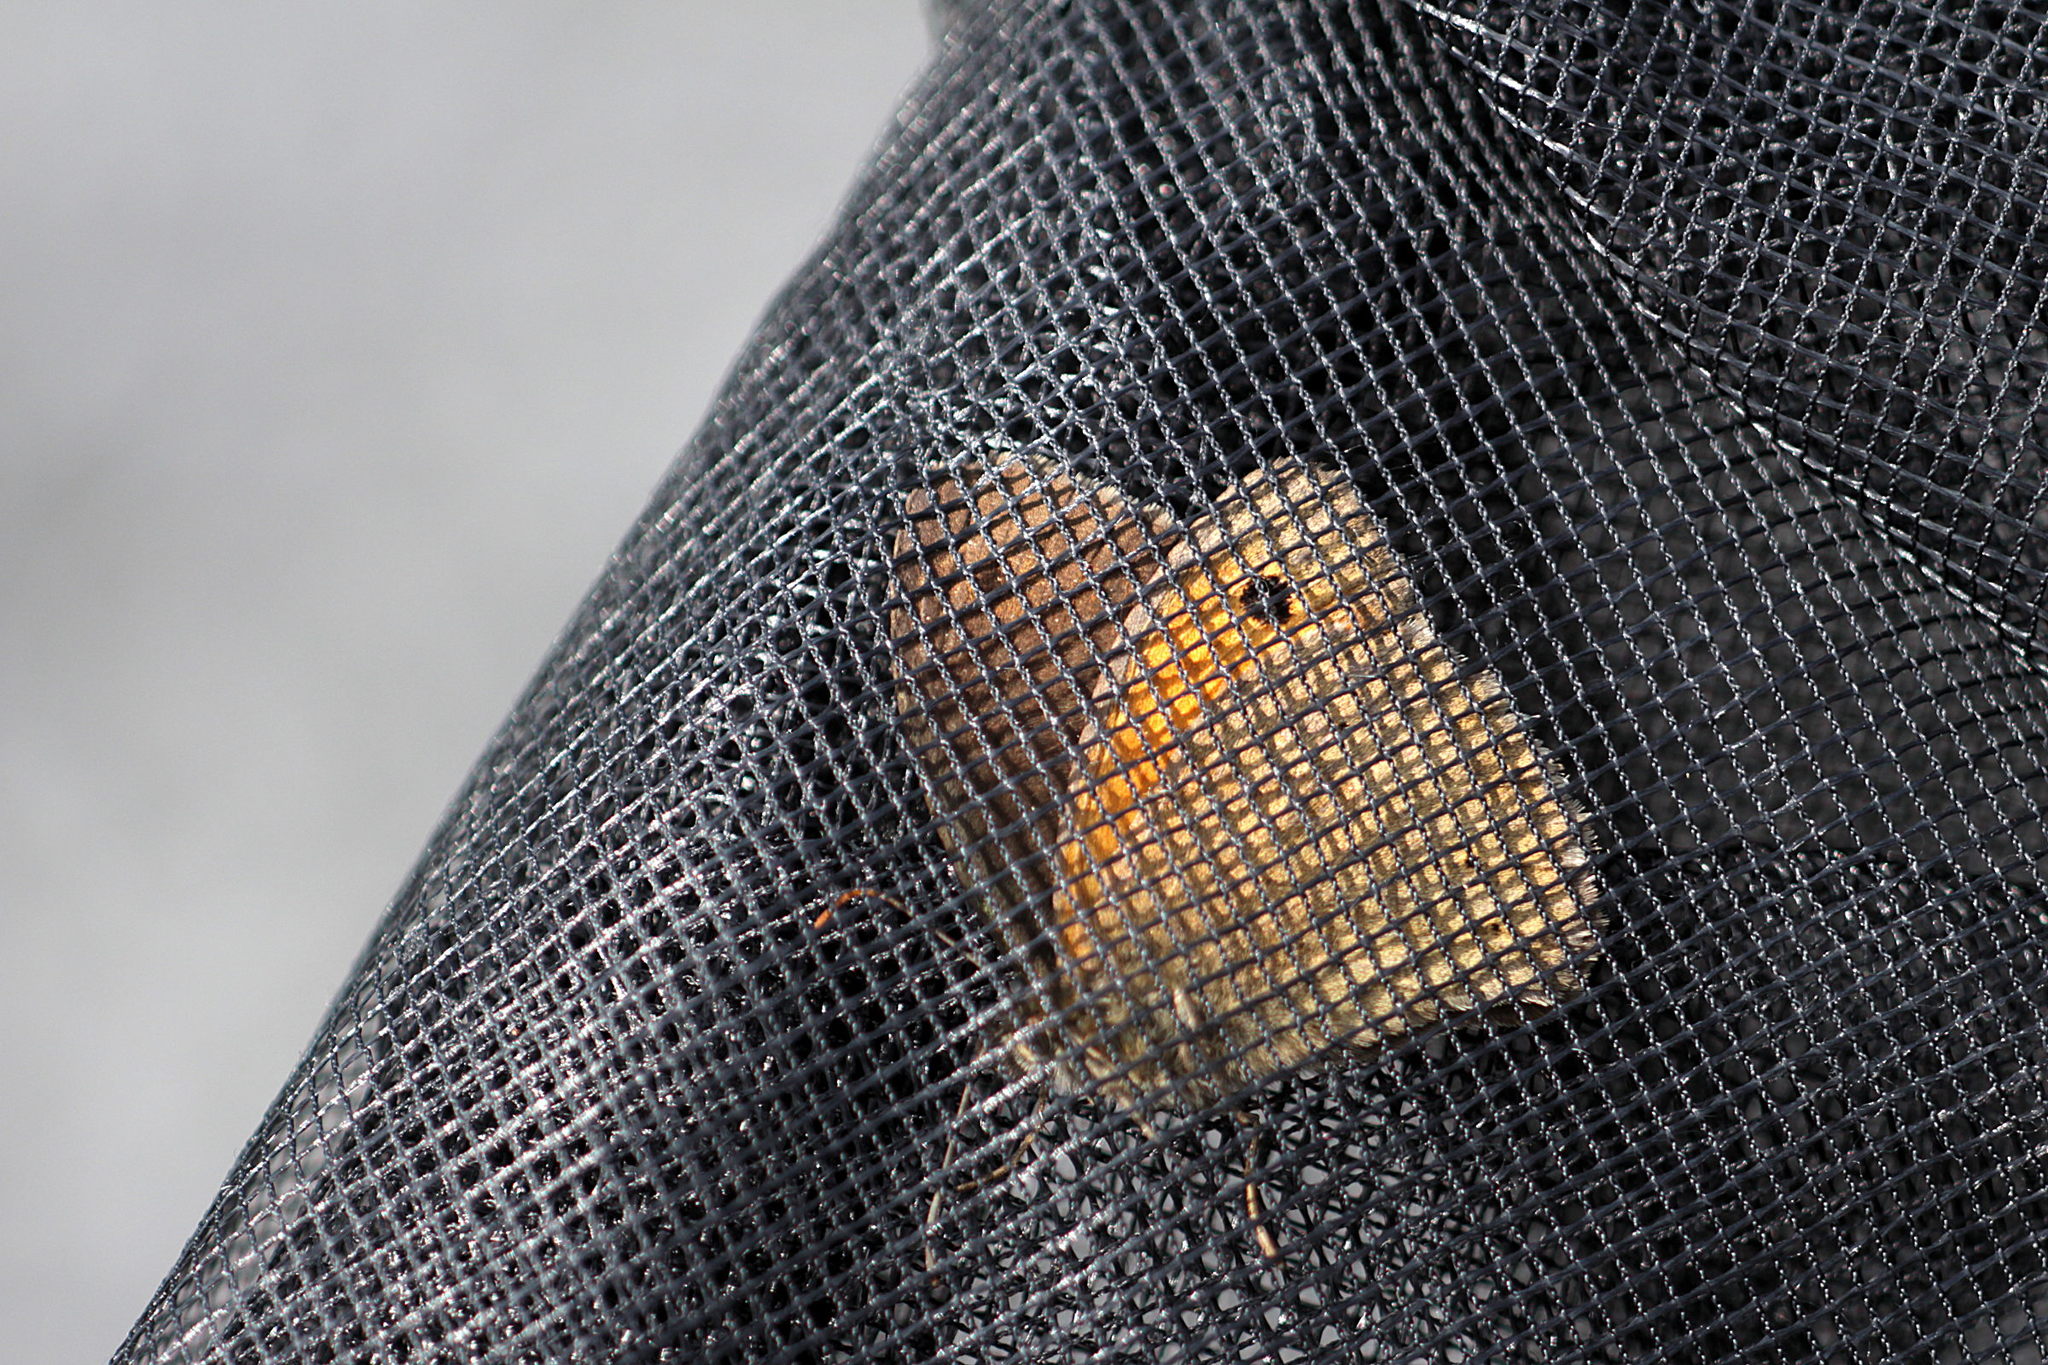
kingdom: Animalia
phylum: Arthropoda
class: Insecta
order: Lepidoptera
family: Nymphalidae
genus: Maniola
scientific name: Maniola jurtina
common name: Meadow brown
